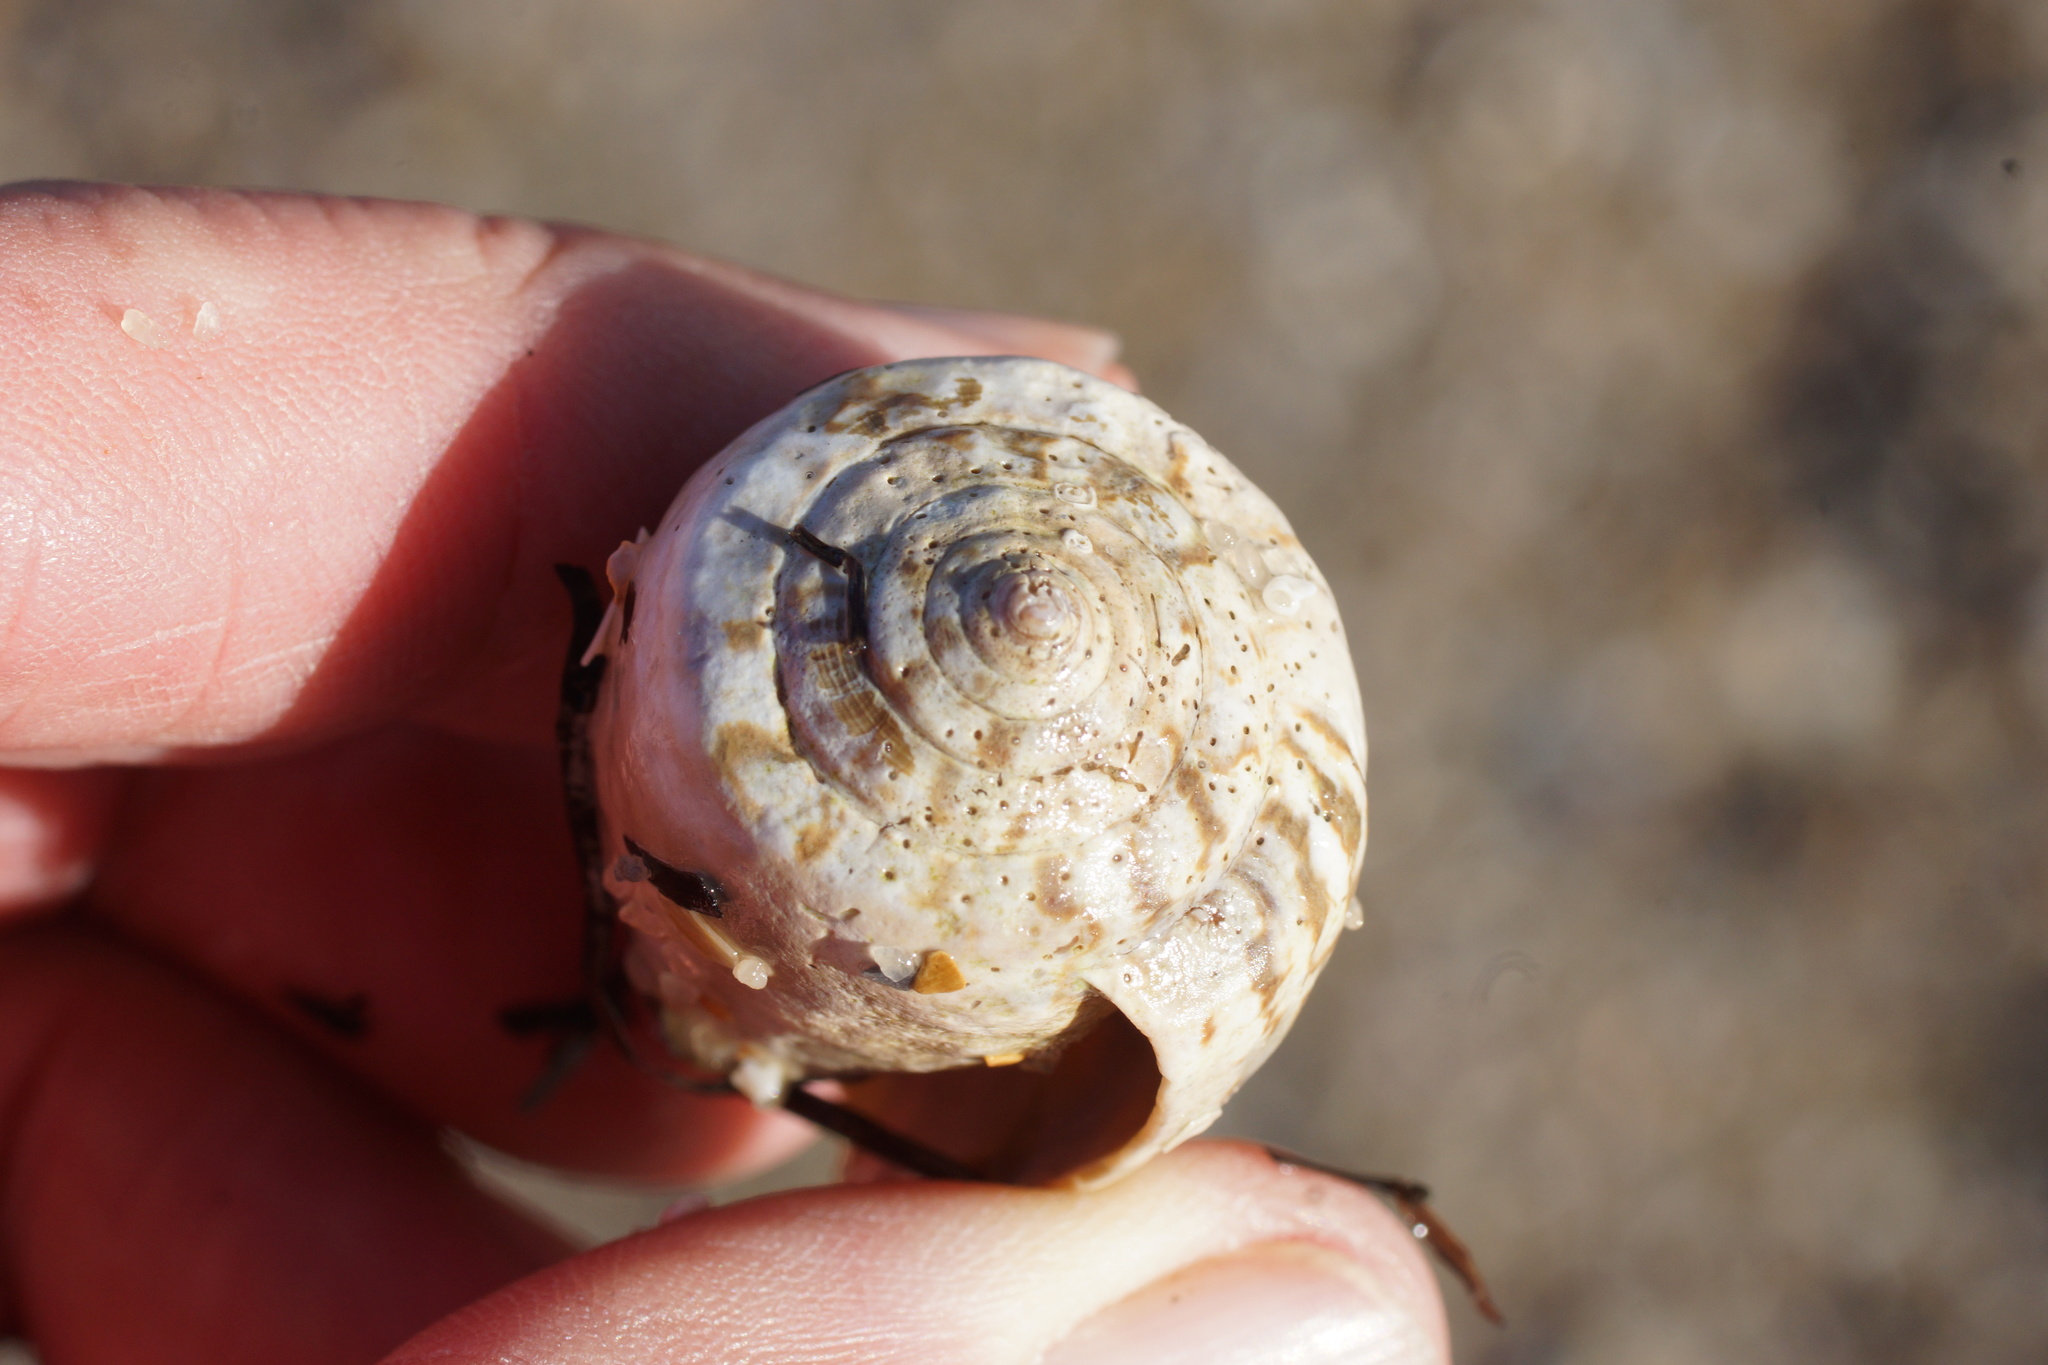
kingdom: Animalia
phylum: Mollusca
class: Gastropoda
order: Neogastropoda
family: Conidae
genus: Conus
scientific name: Conus anemone
